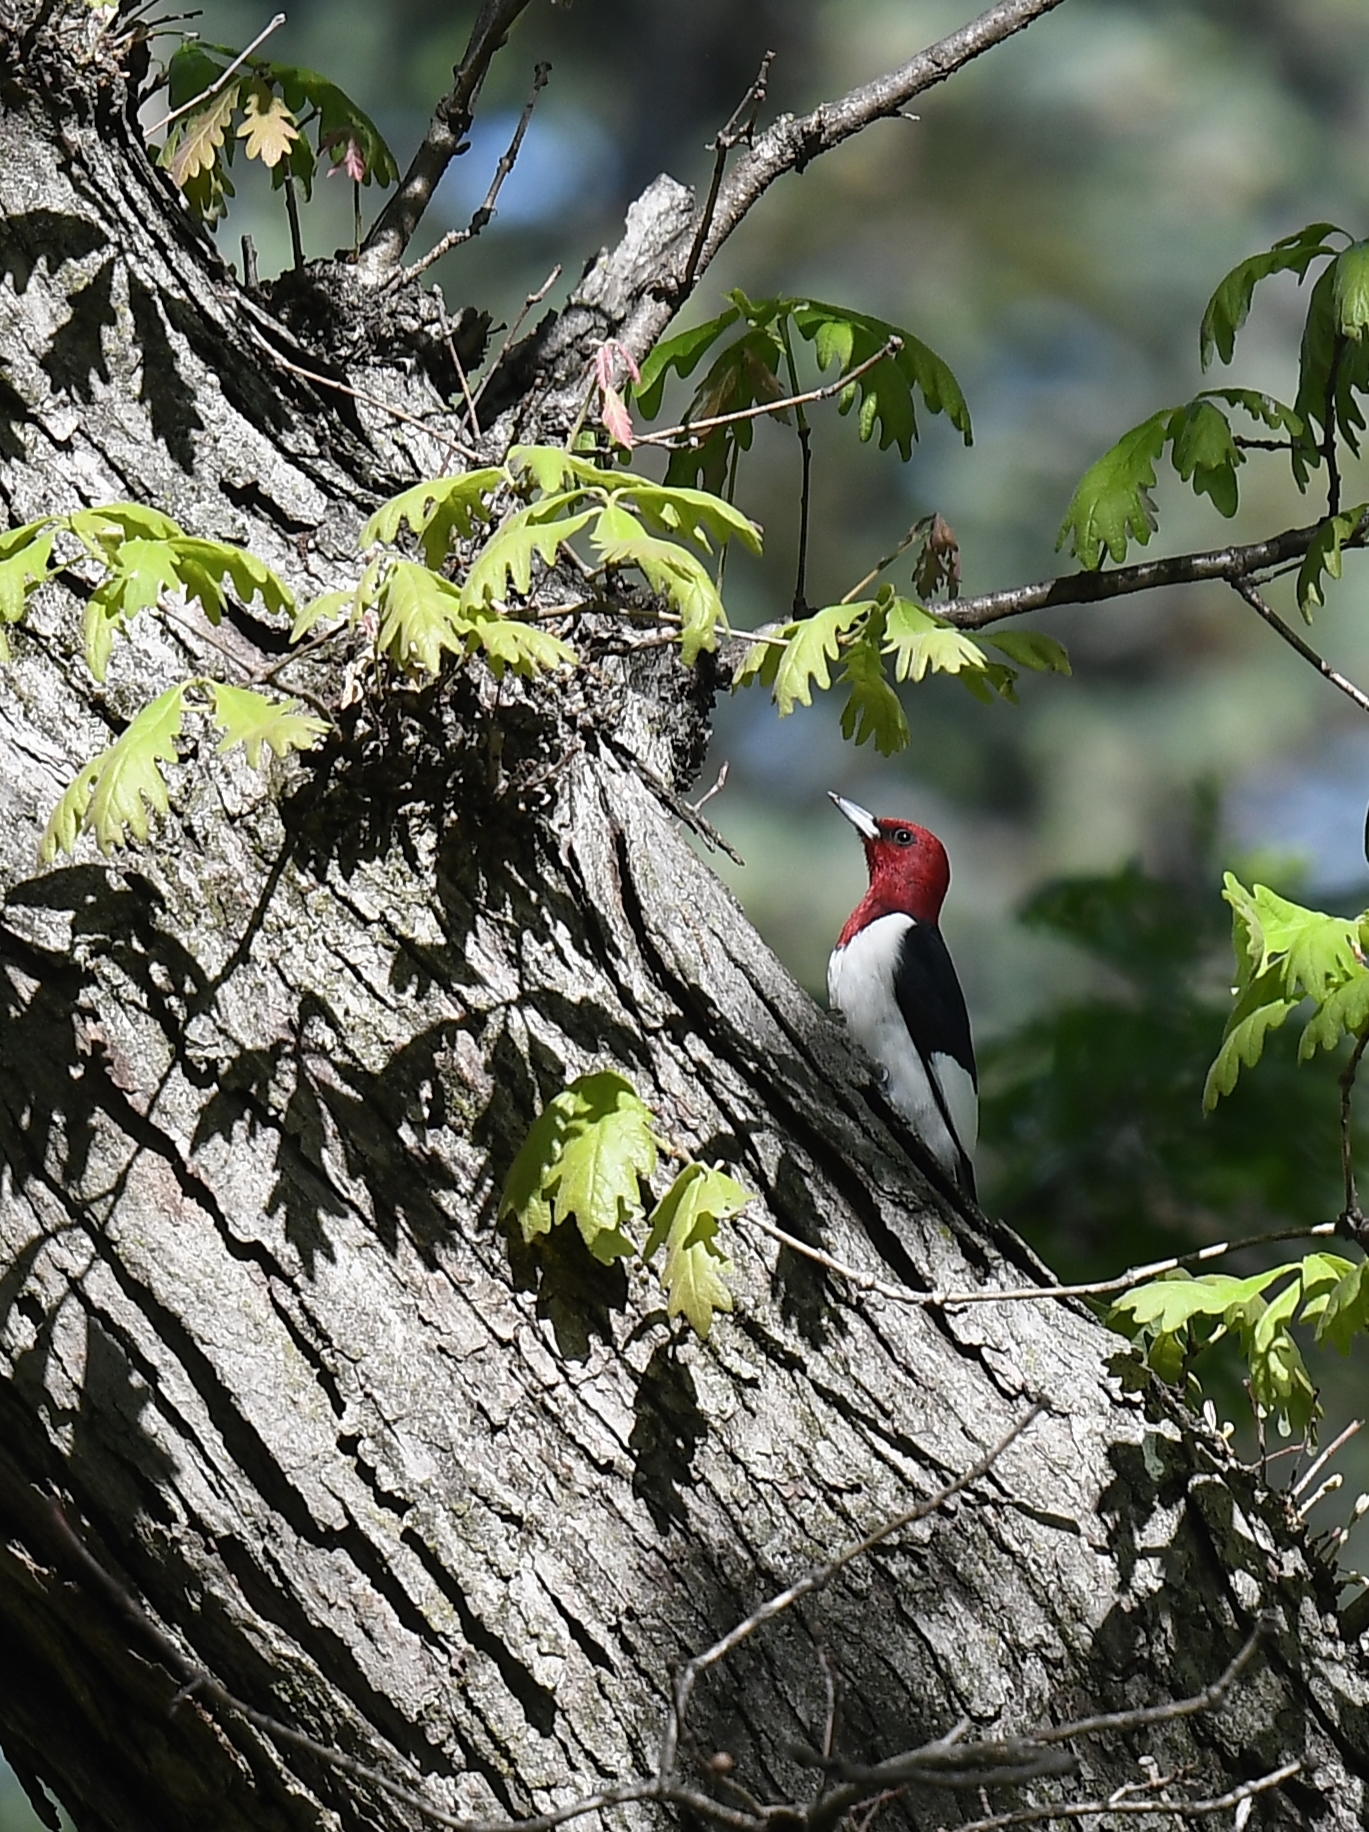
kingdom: Animalia
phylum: Chordata
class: Aves
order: Piciformes
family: Picidae
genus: Melanerpes
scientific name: Melanerpes erythrocephalus
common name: Red-headed woodpecker
